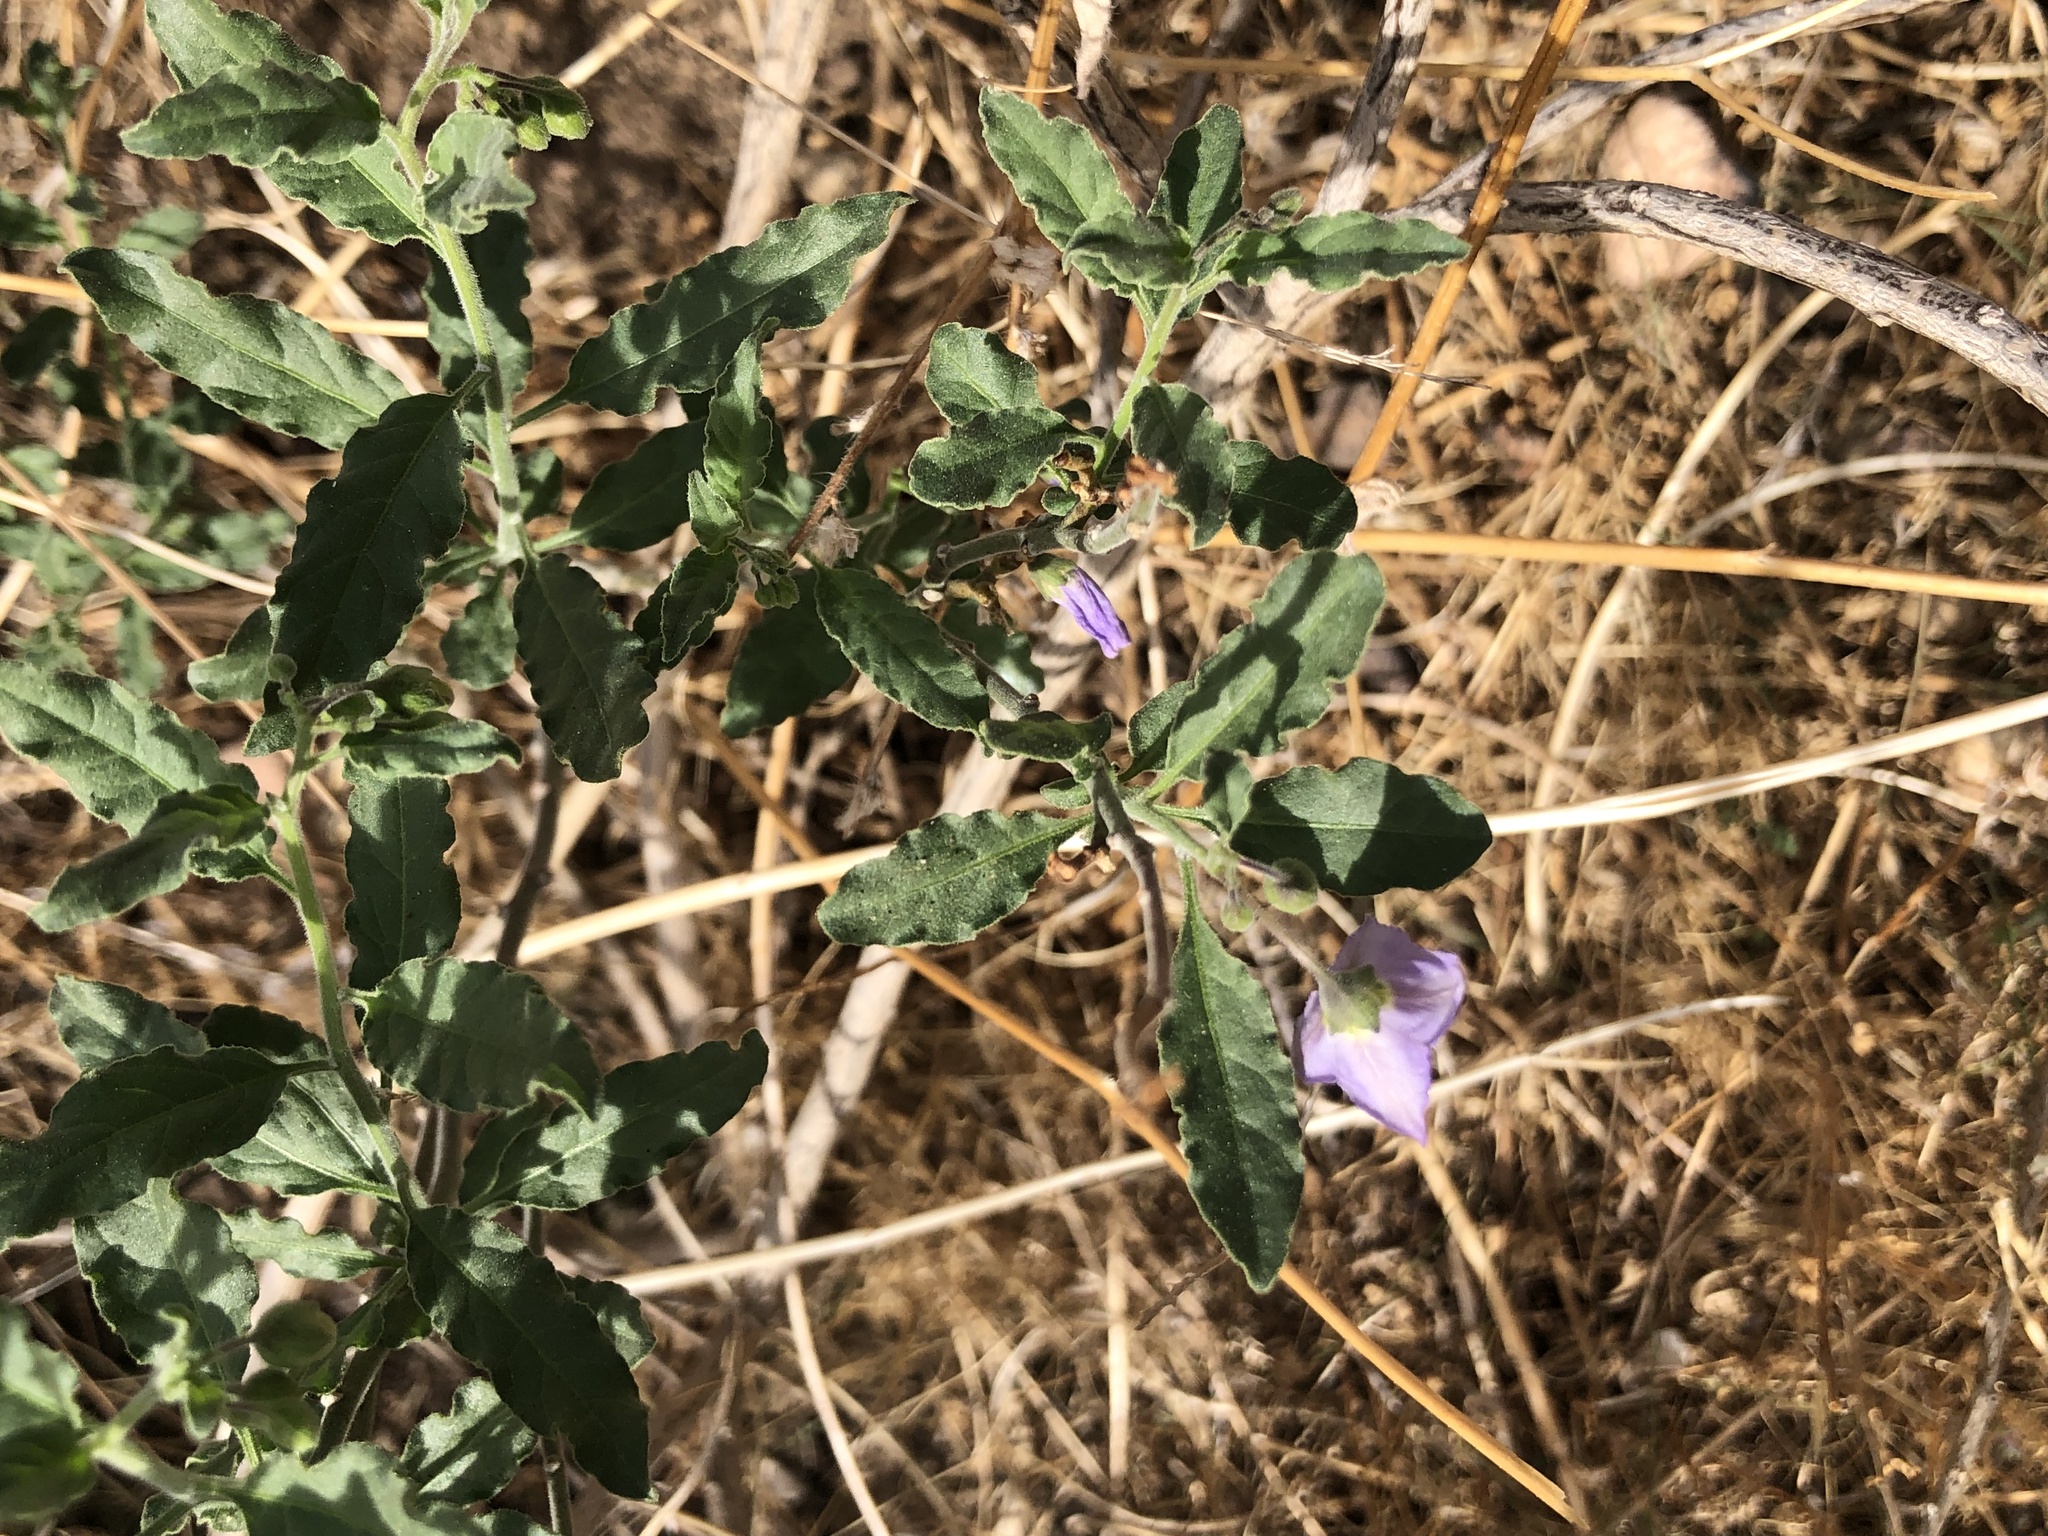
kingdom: Plantae
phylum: Tracheophyta
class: Magnoliopsida
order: Solanales
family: Solanaceae
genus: Solanum
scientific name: Solanum umbelliferum
